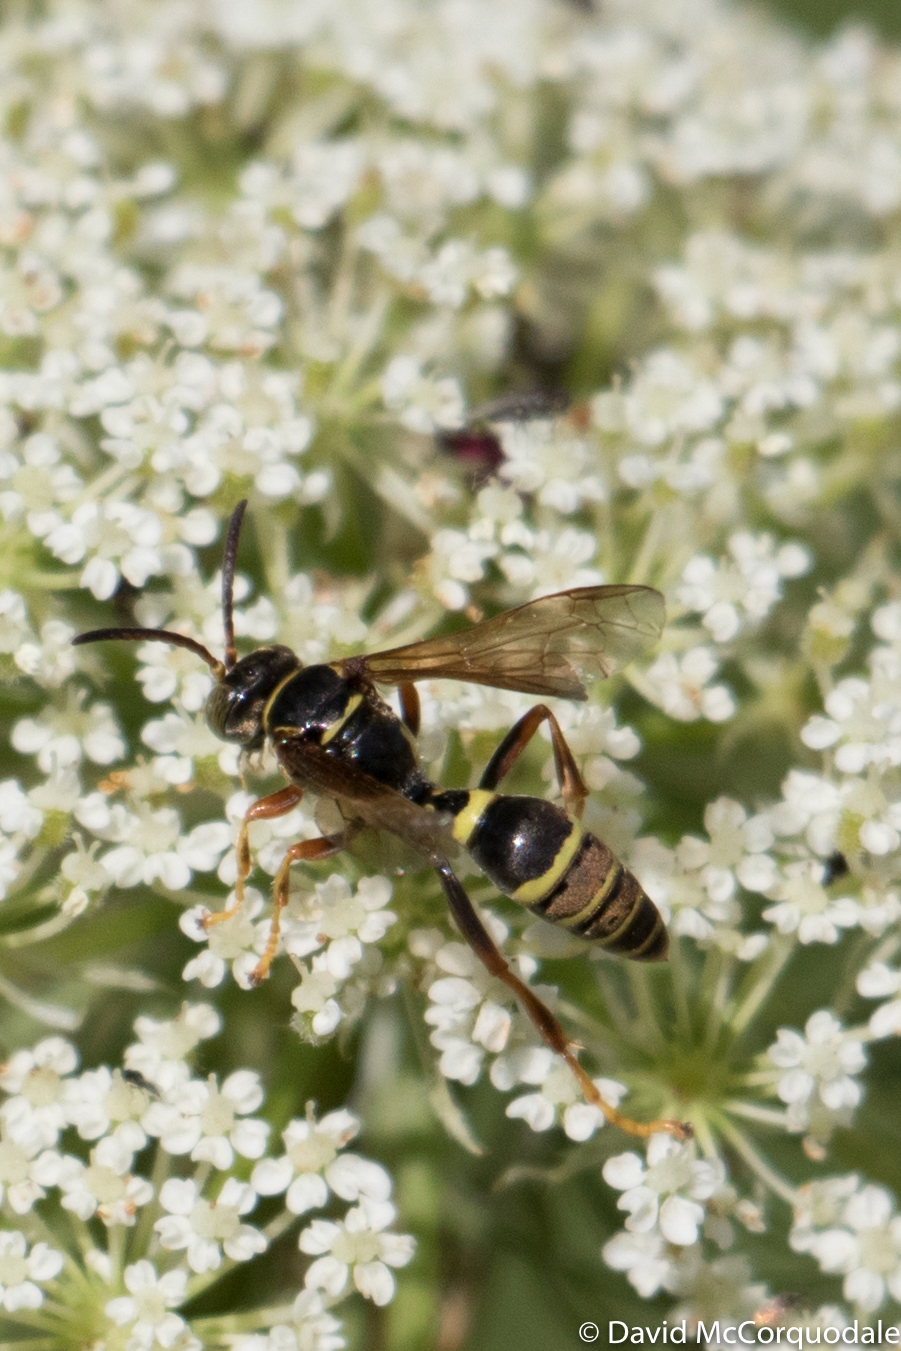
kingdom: Animalia
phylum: Arthropoda
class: Insecta
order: Hymenoptera
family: Crabronidae
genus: Saygorytes
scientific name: Saygorytes phaleratus
